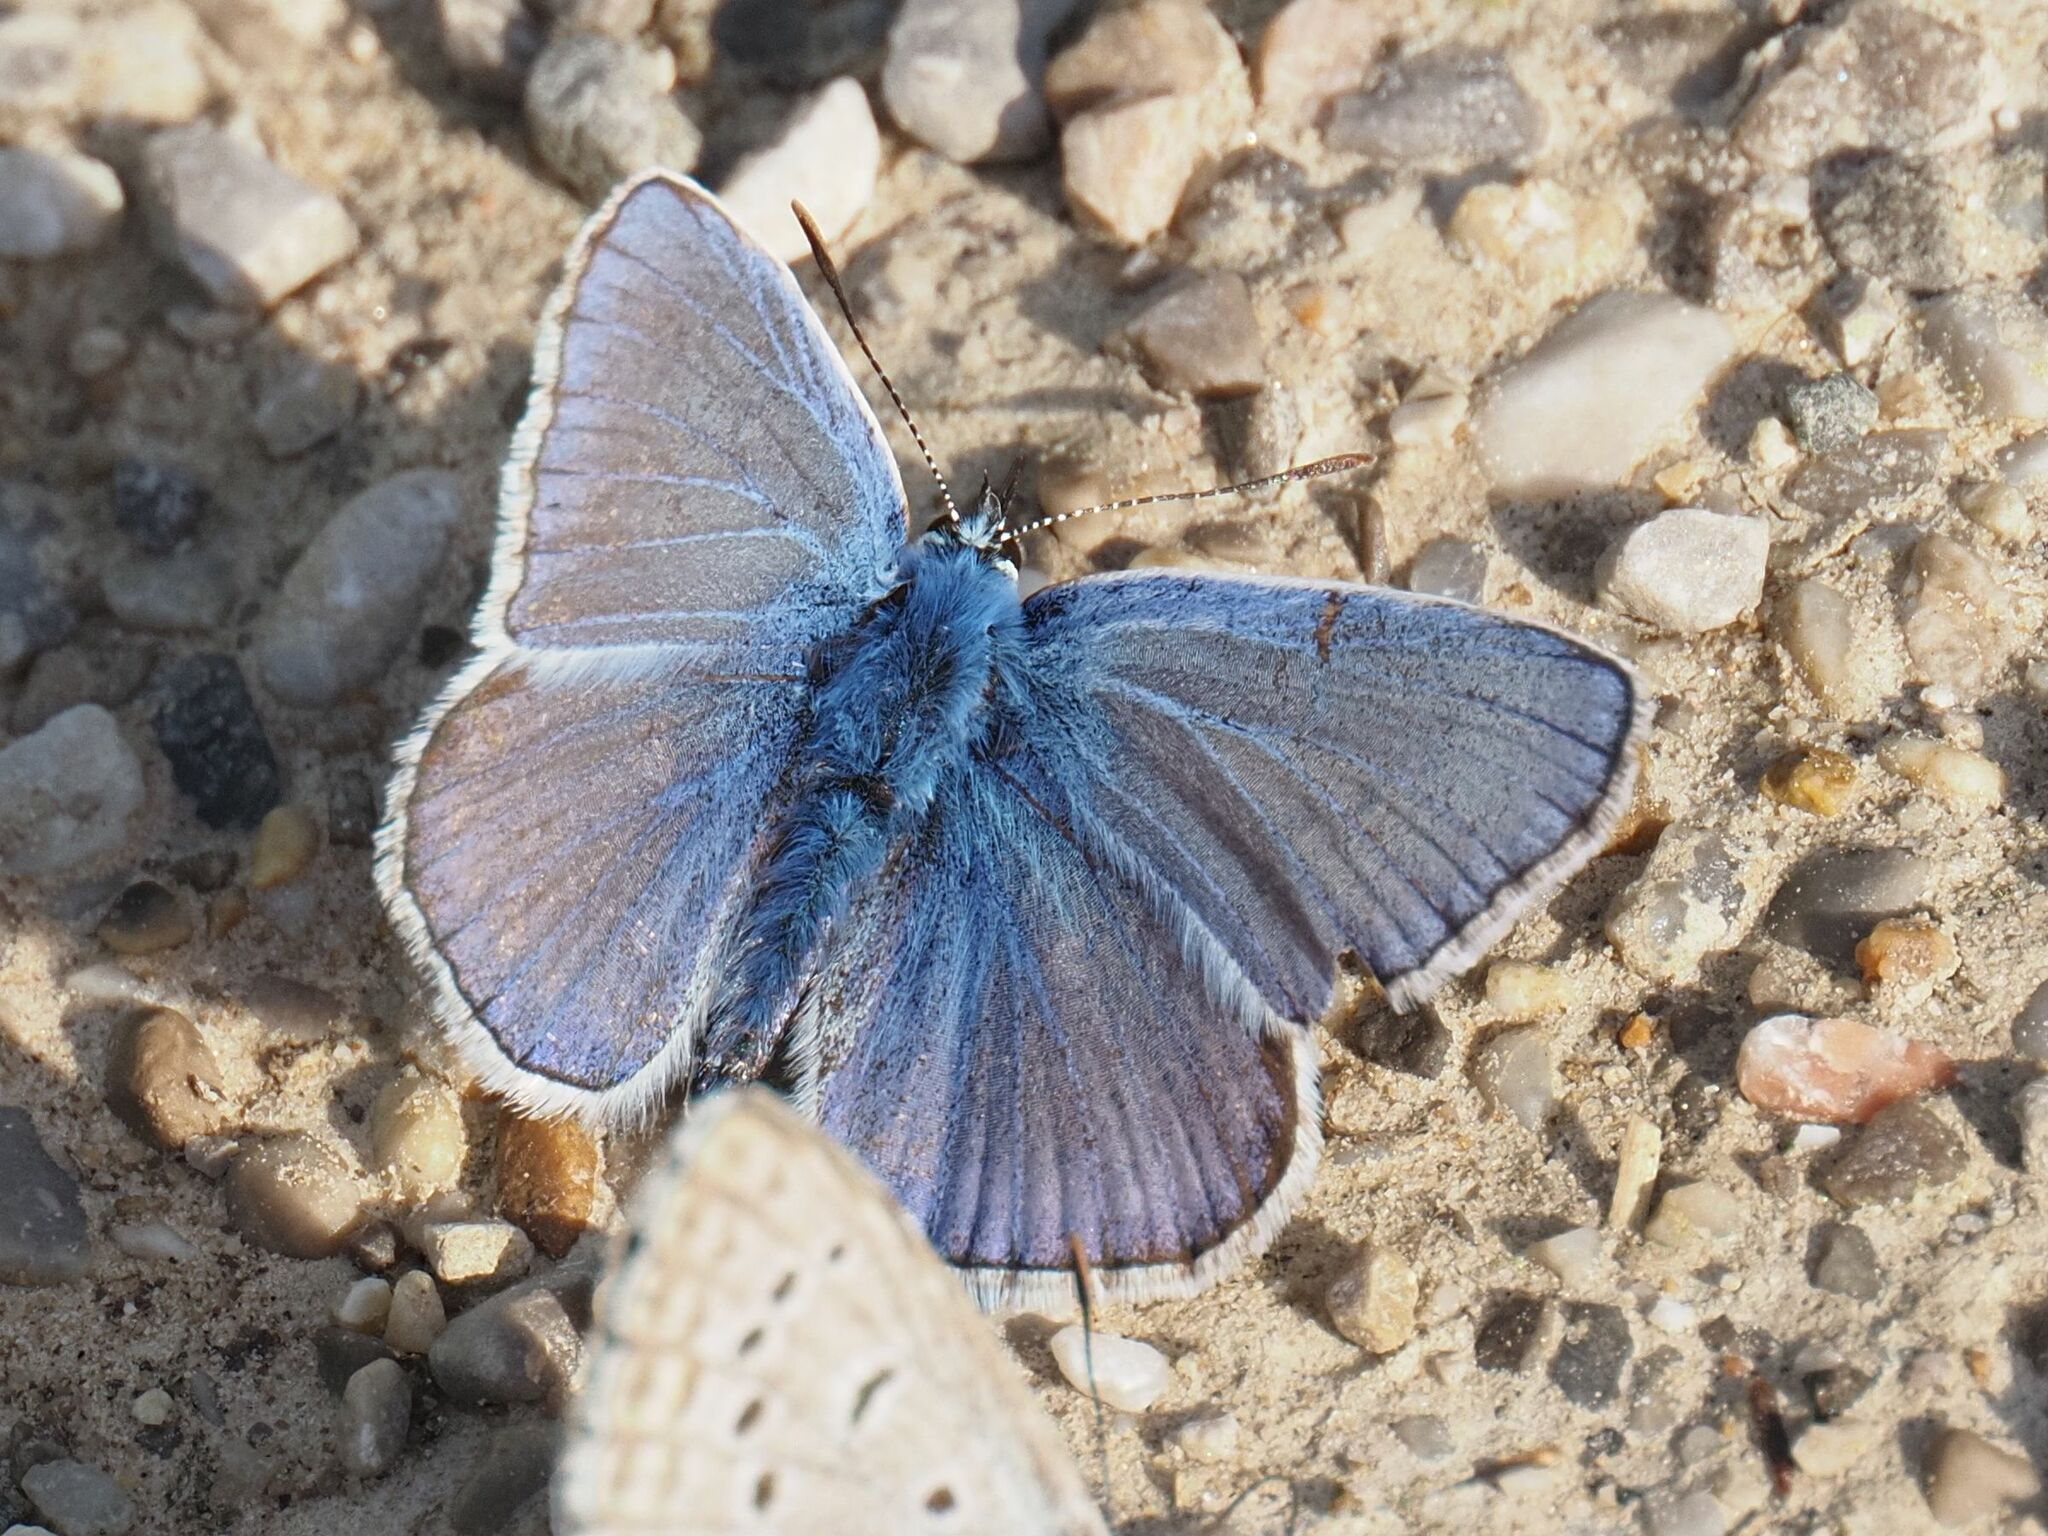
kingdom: Animalia
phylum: Arthropoda
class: Insecta
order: Lepidoptera
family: Lycaenidae
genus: Polyommatus
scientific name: Polyommatus icarus
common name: Common blue
